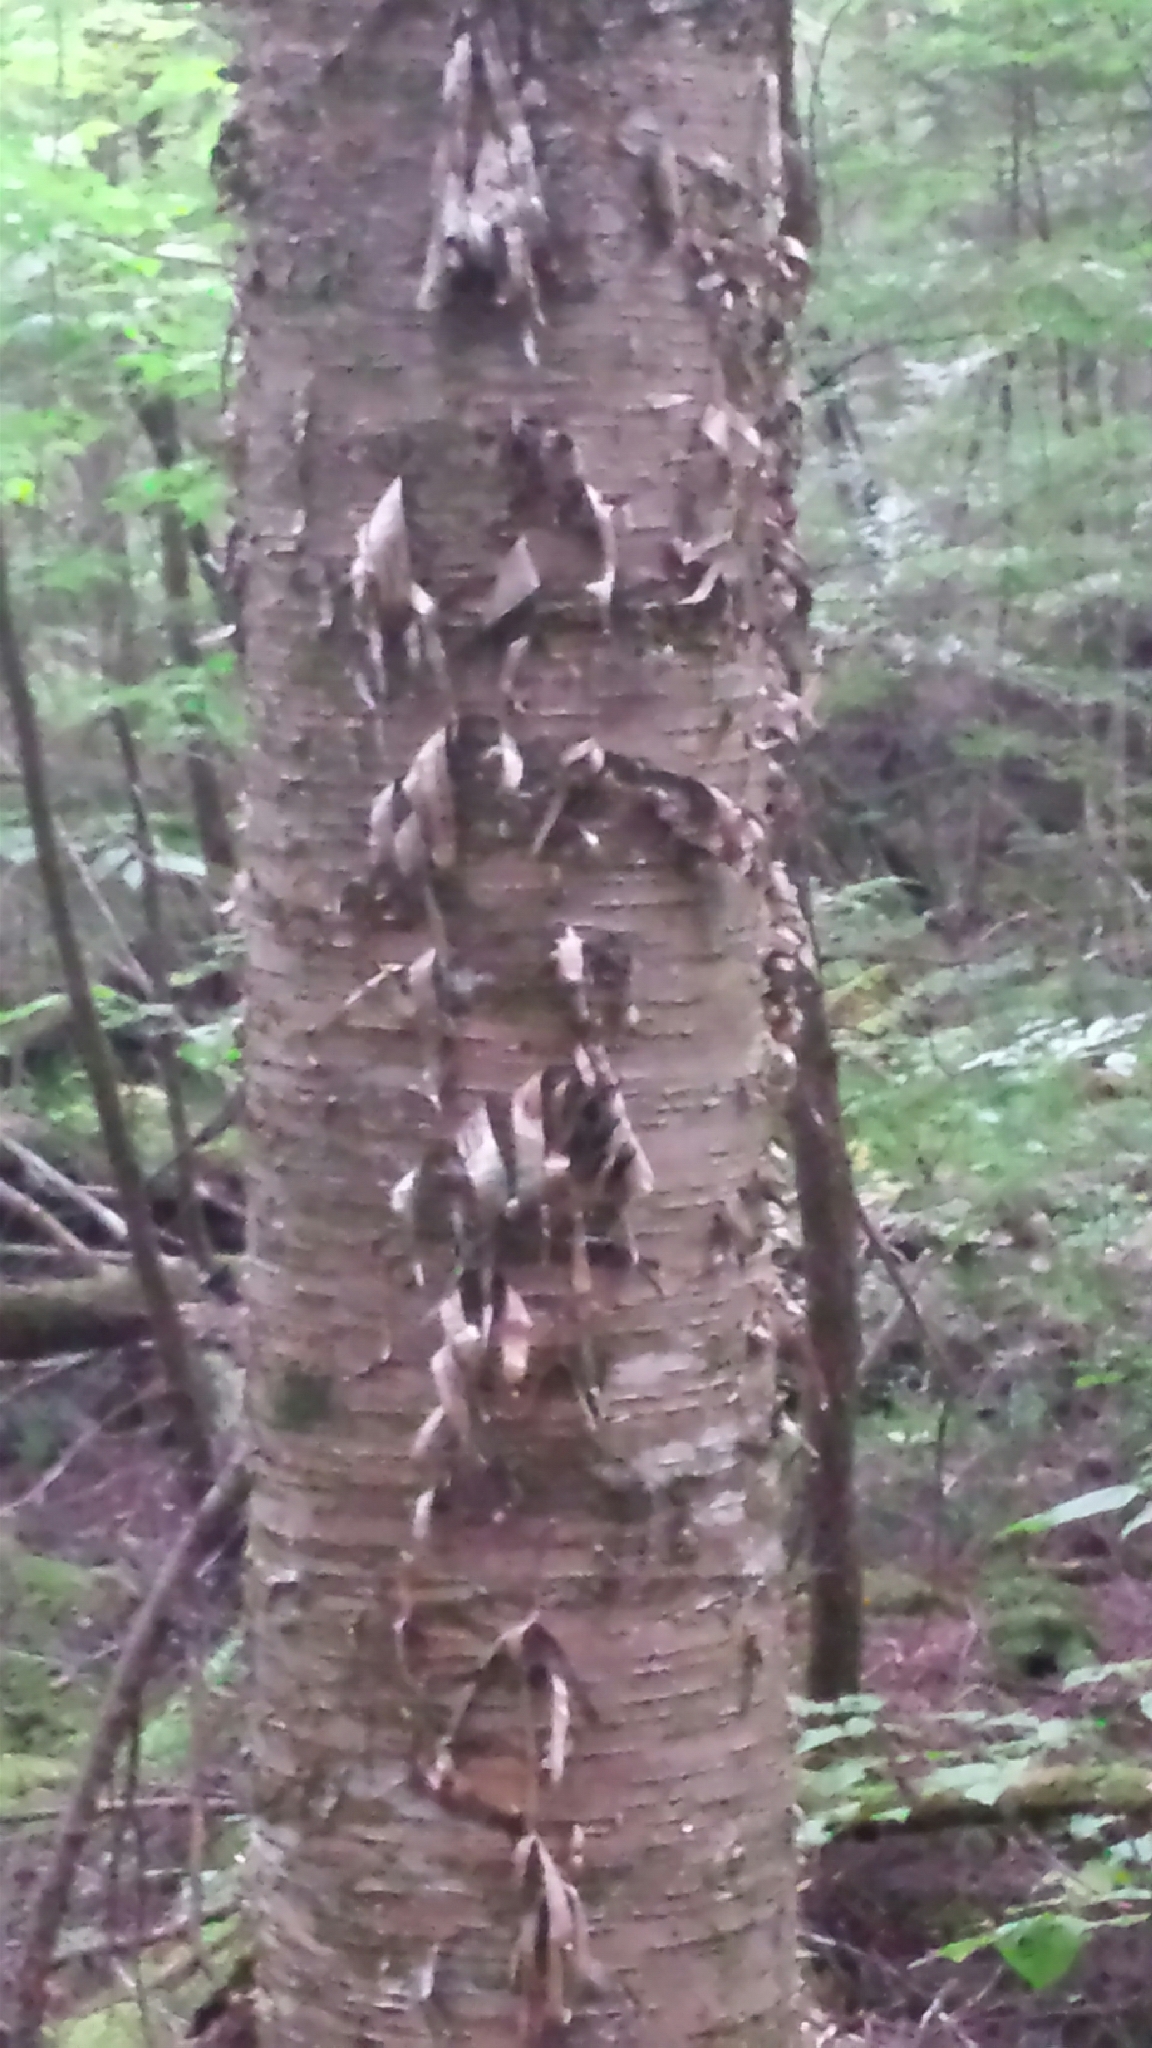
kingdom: Plantae
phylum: Tracheophyta
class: Magnoliopsida
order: Fagales
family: Betulaceae
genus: Betula
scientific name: Betula alleghaniensis
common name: Yellow birch
